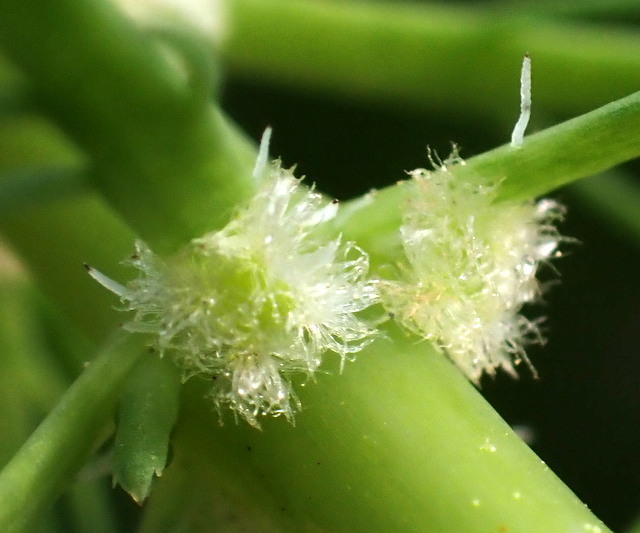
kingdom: Plantae
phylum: Tracheophyta
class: Magnoliopsida
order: Saxifragales
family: Haloragaceae
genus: Myriophyllum
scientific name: Myriophyllum aquaticum
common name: Parrot's feather
